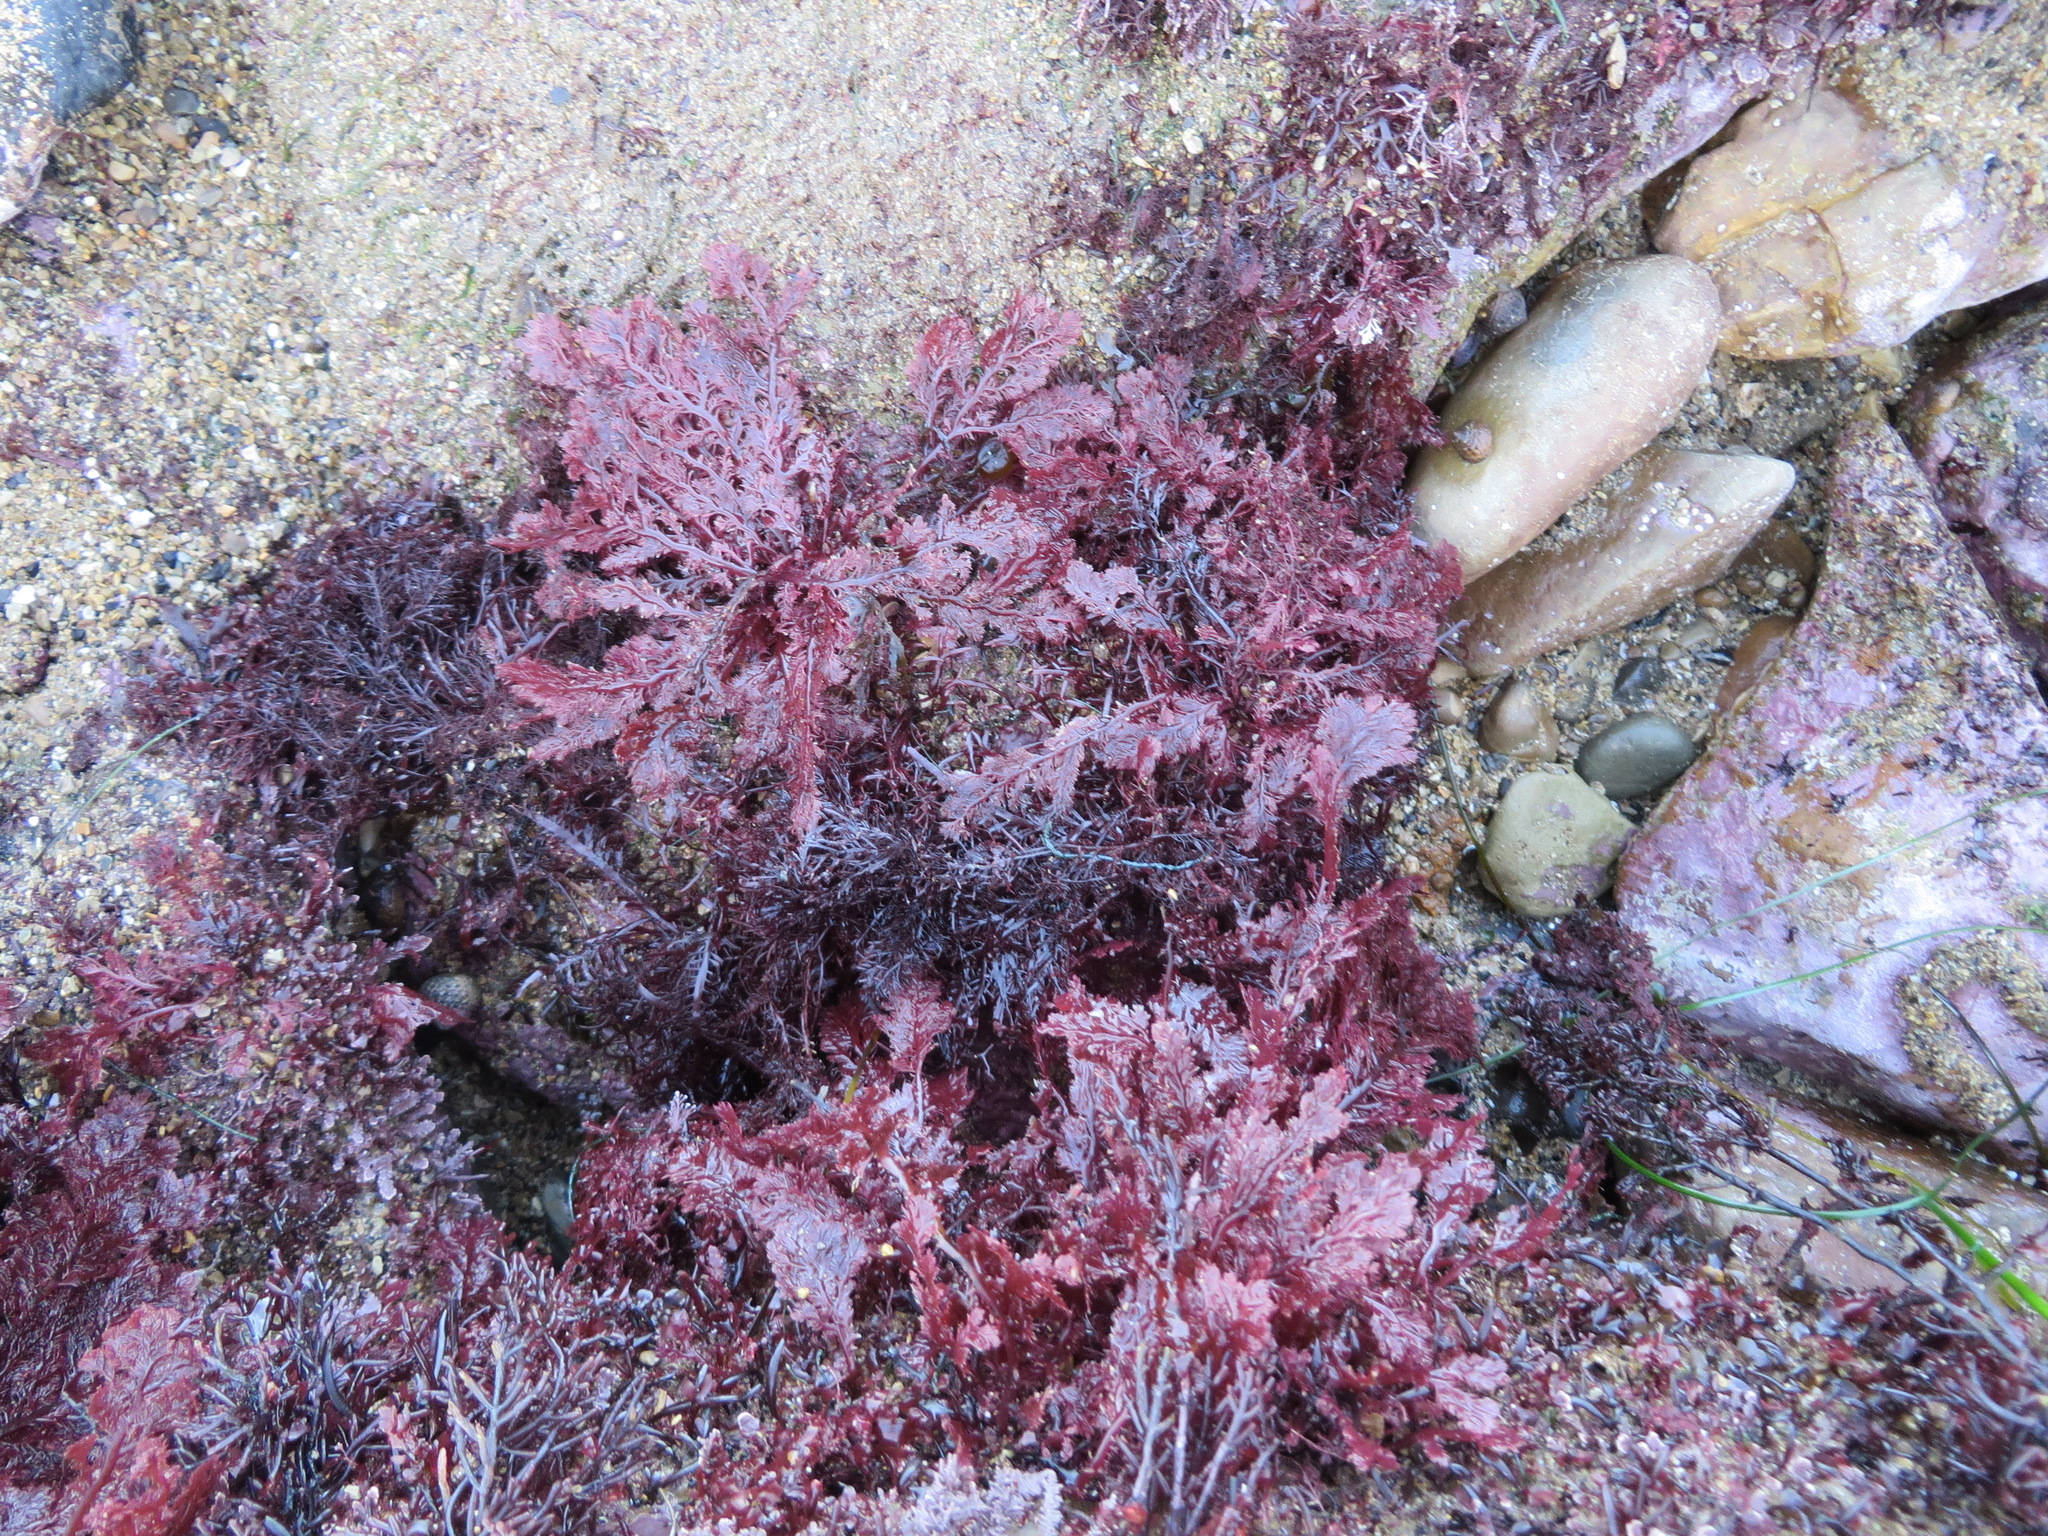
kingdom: Plantae
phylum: Rhodophyta
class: Florideophyceae
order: Plocamiales
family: Plocamiaceae
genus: Plocamium
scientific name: Plocamium cartilagineum
